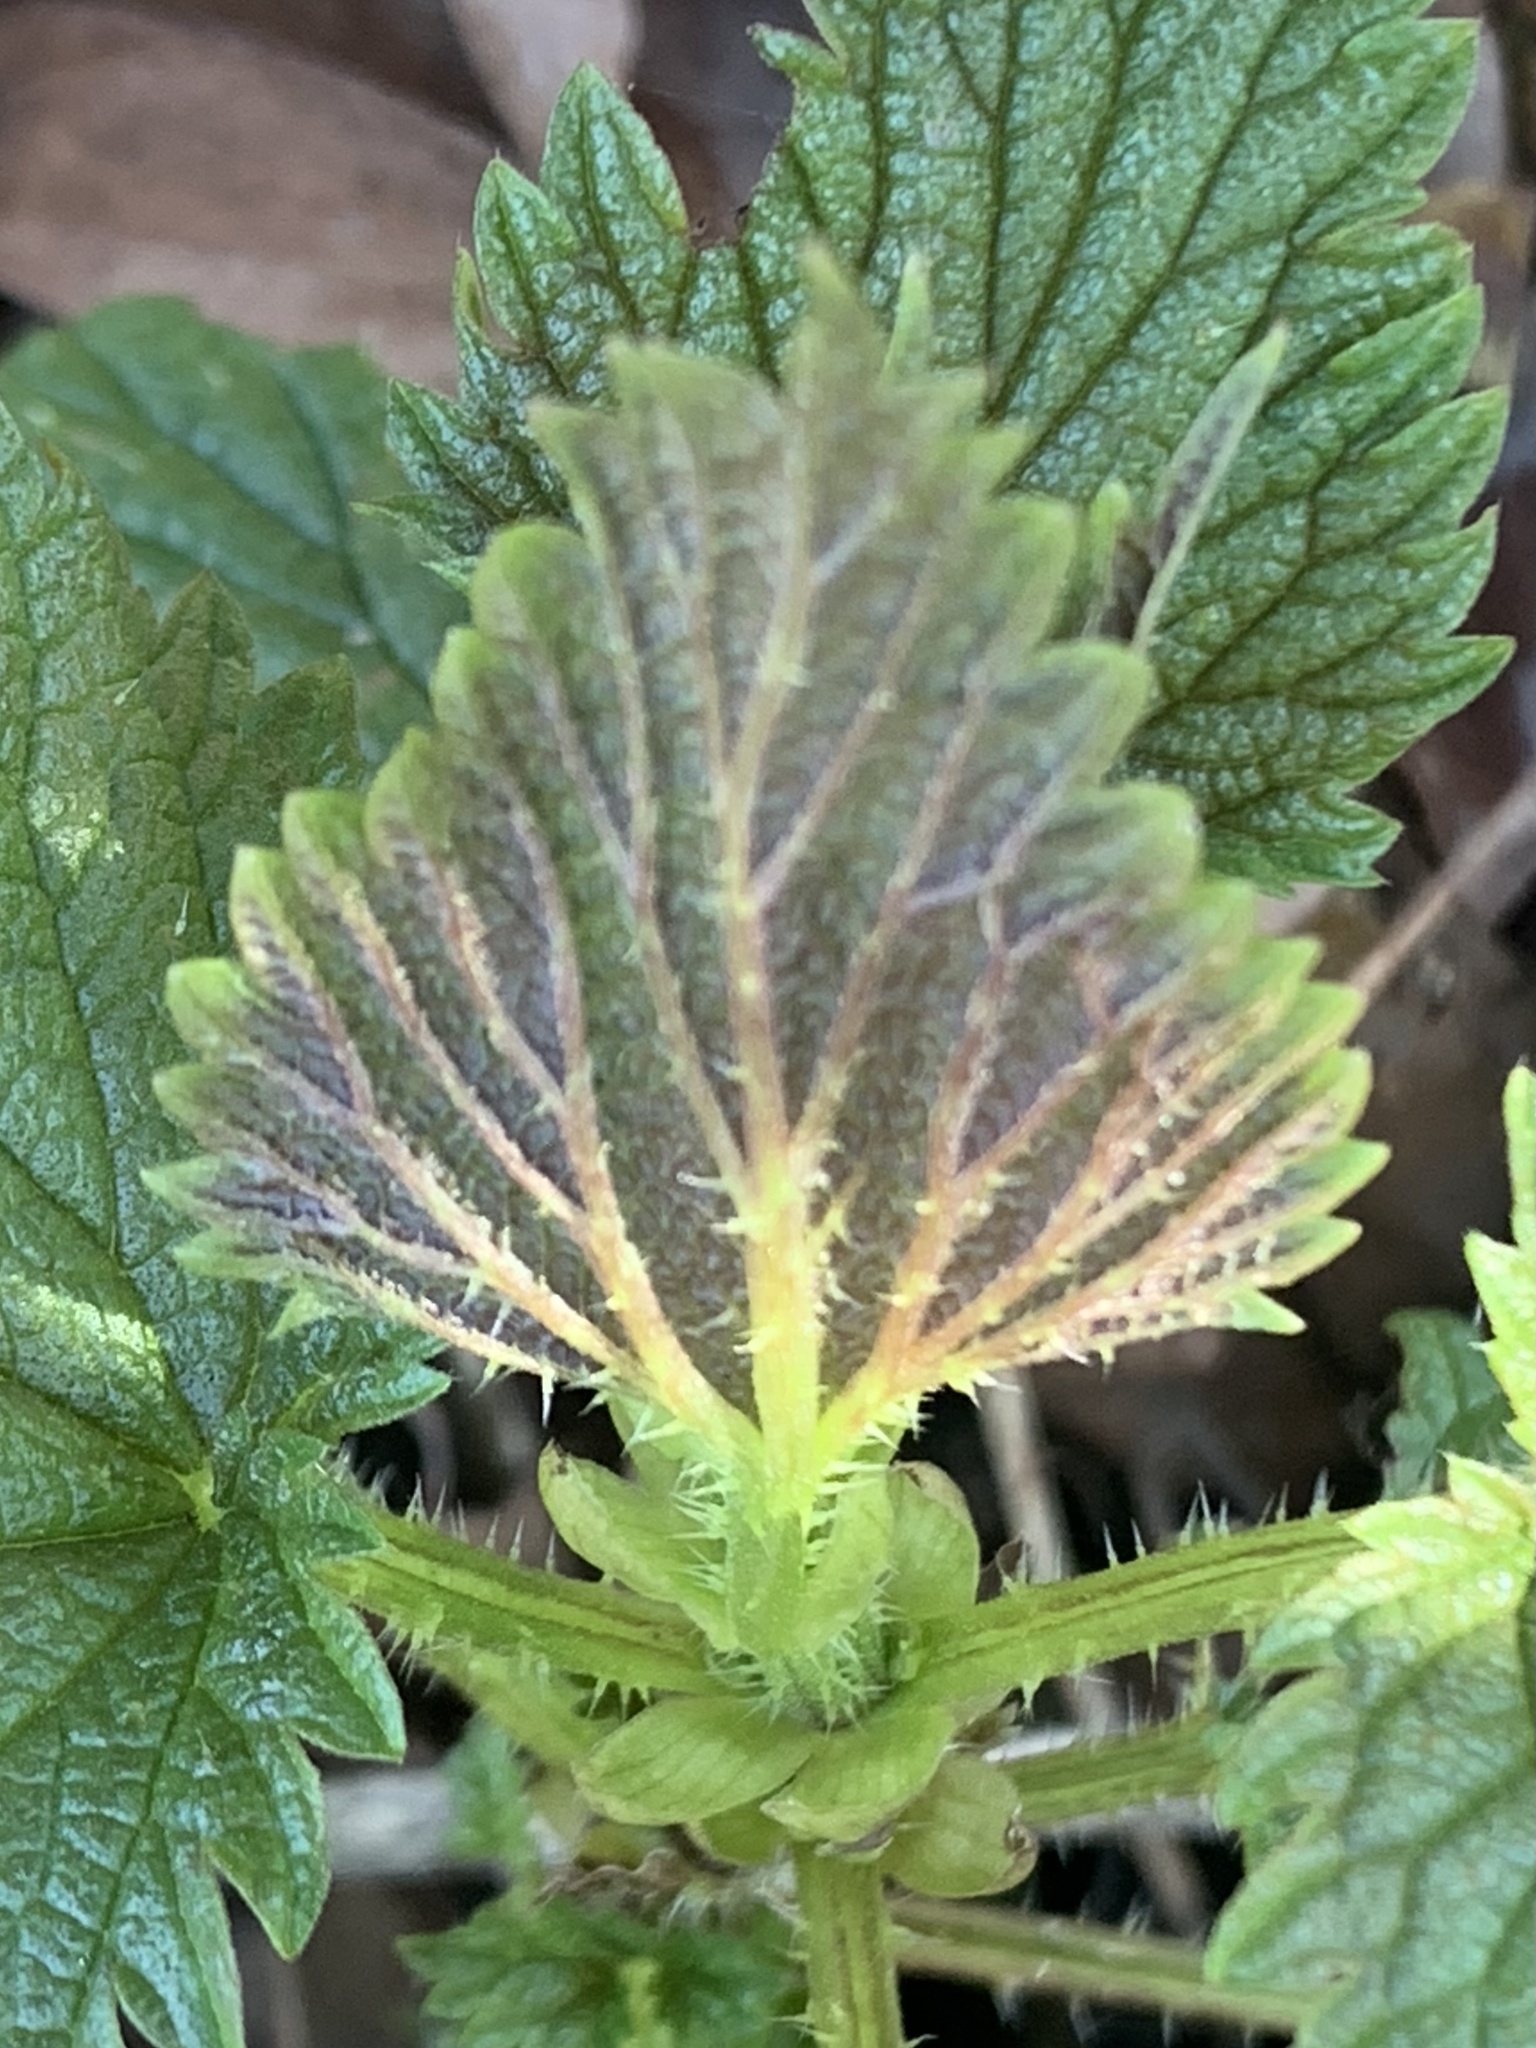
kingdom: Plantae
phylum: Tracheophyta
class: Magnoliopsida
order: Rosales
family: Urticaceae
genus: Urtica
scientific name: Urtica dioica
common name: Common nettle
